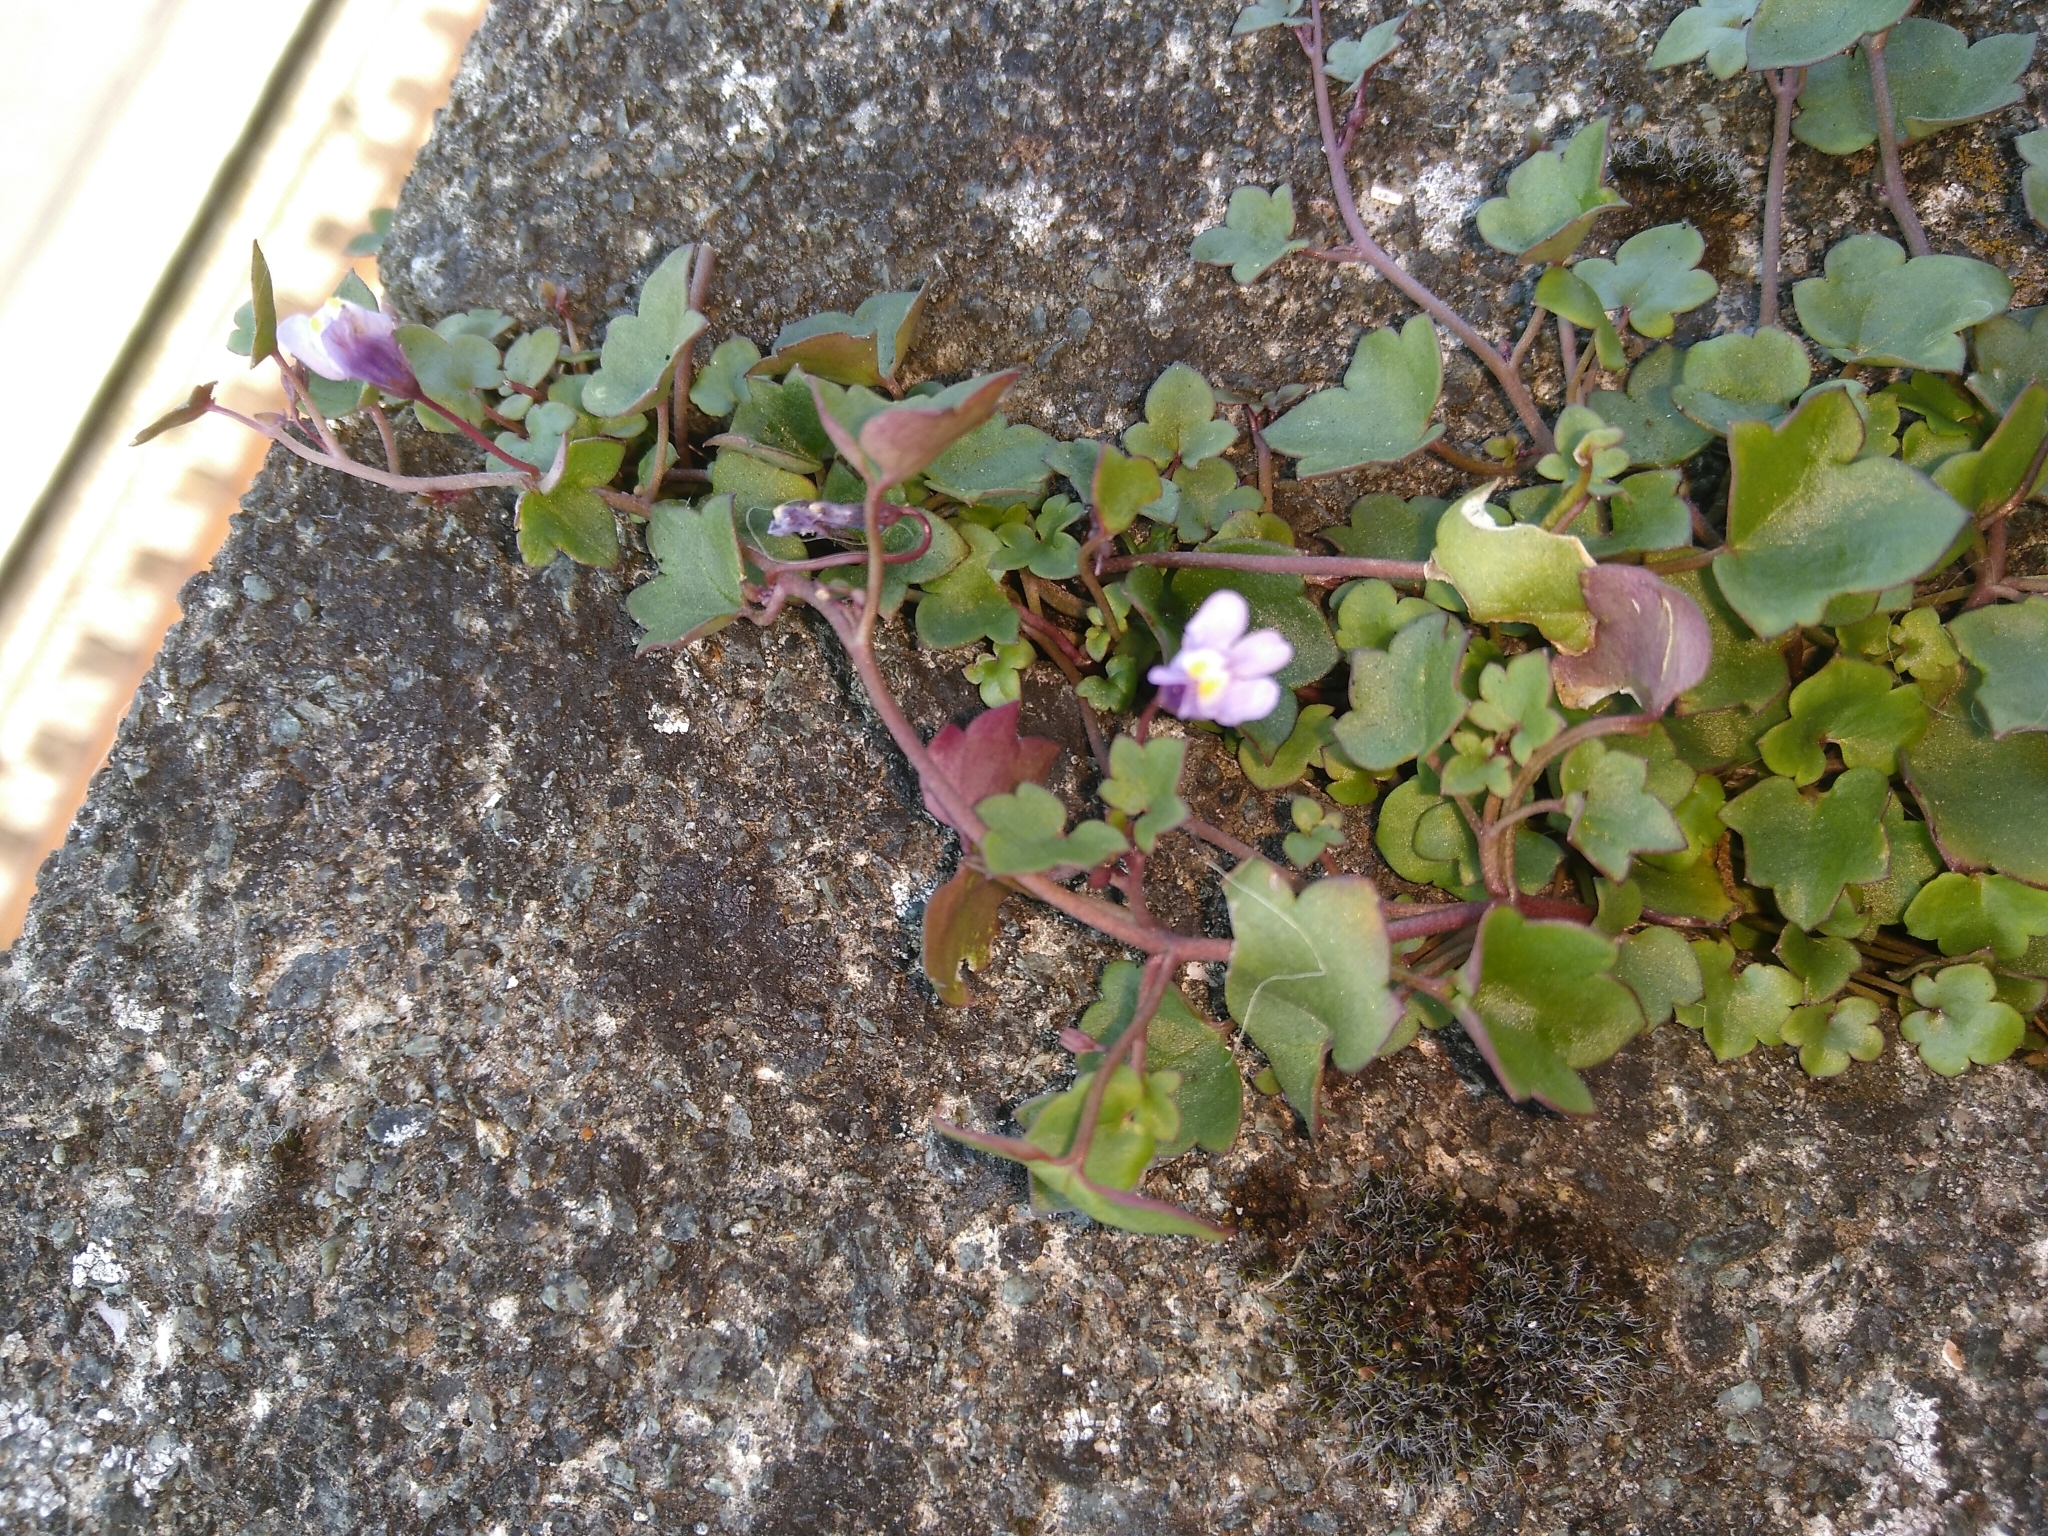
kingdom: Plantae
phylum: Tracheophyta
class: Magnoliopsida
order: Lamiales
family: Plantaginaceae
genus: Cymbalaria
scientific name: Cymbalaria muralis
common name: Ivy-leaved toadflax
